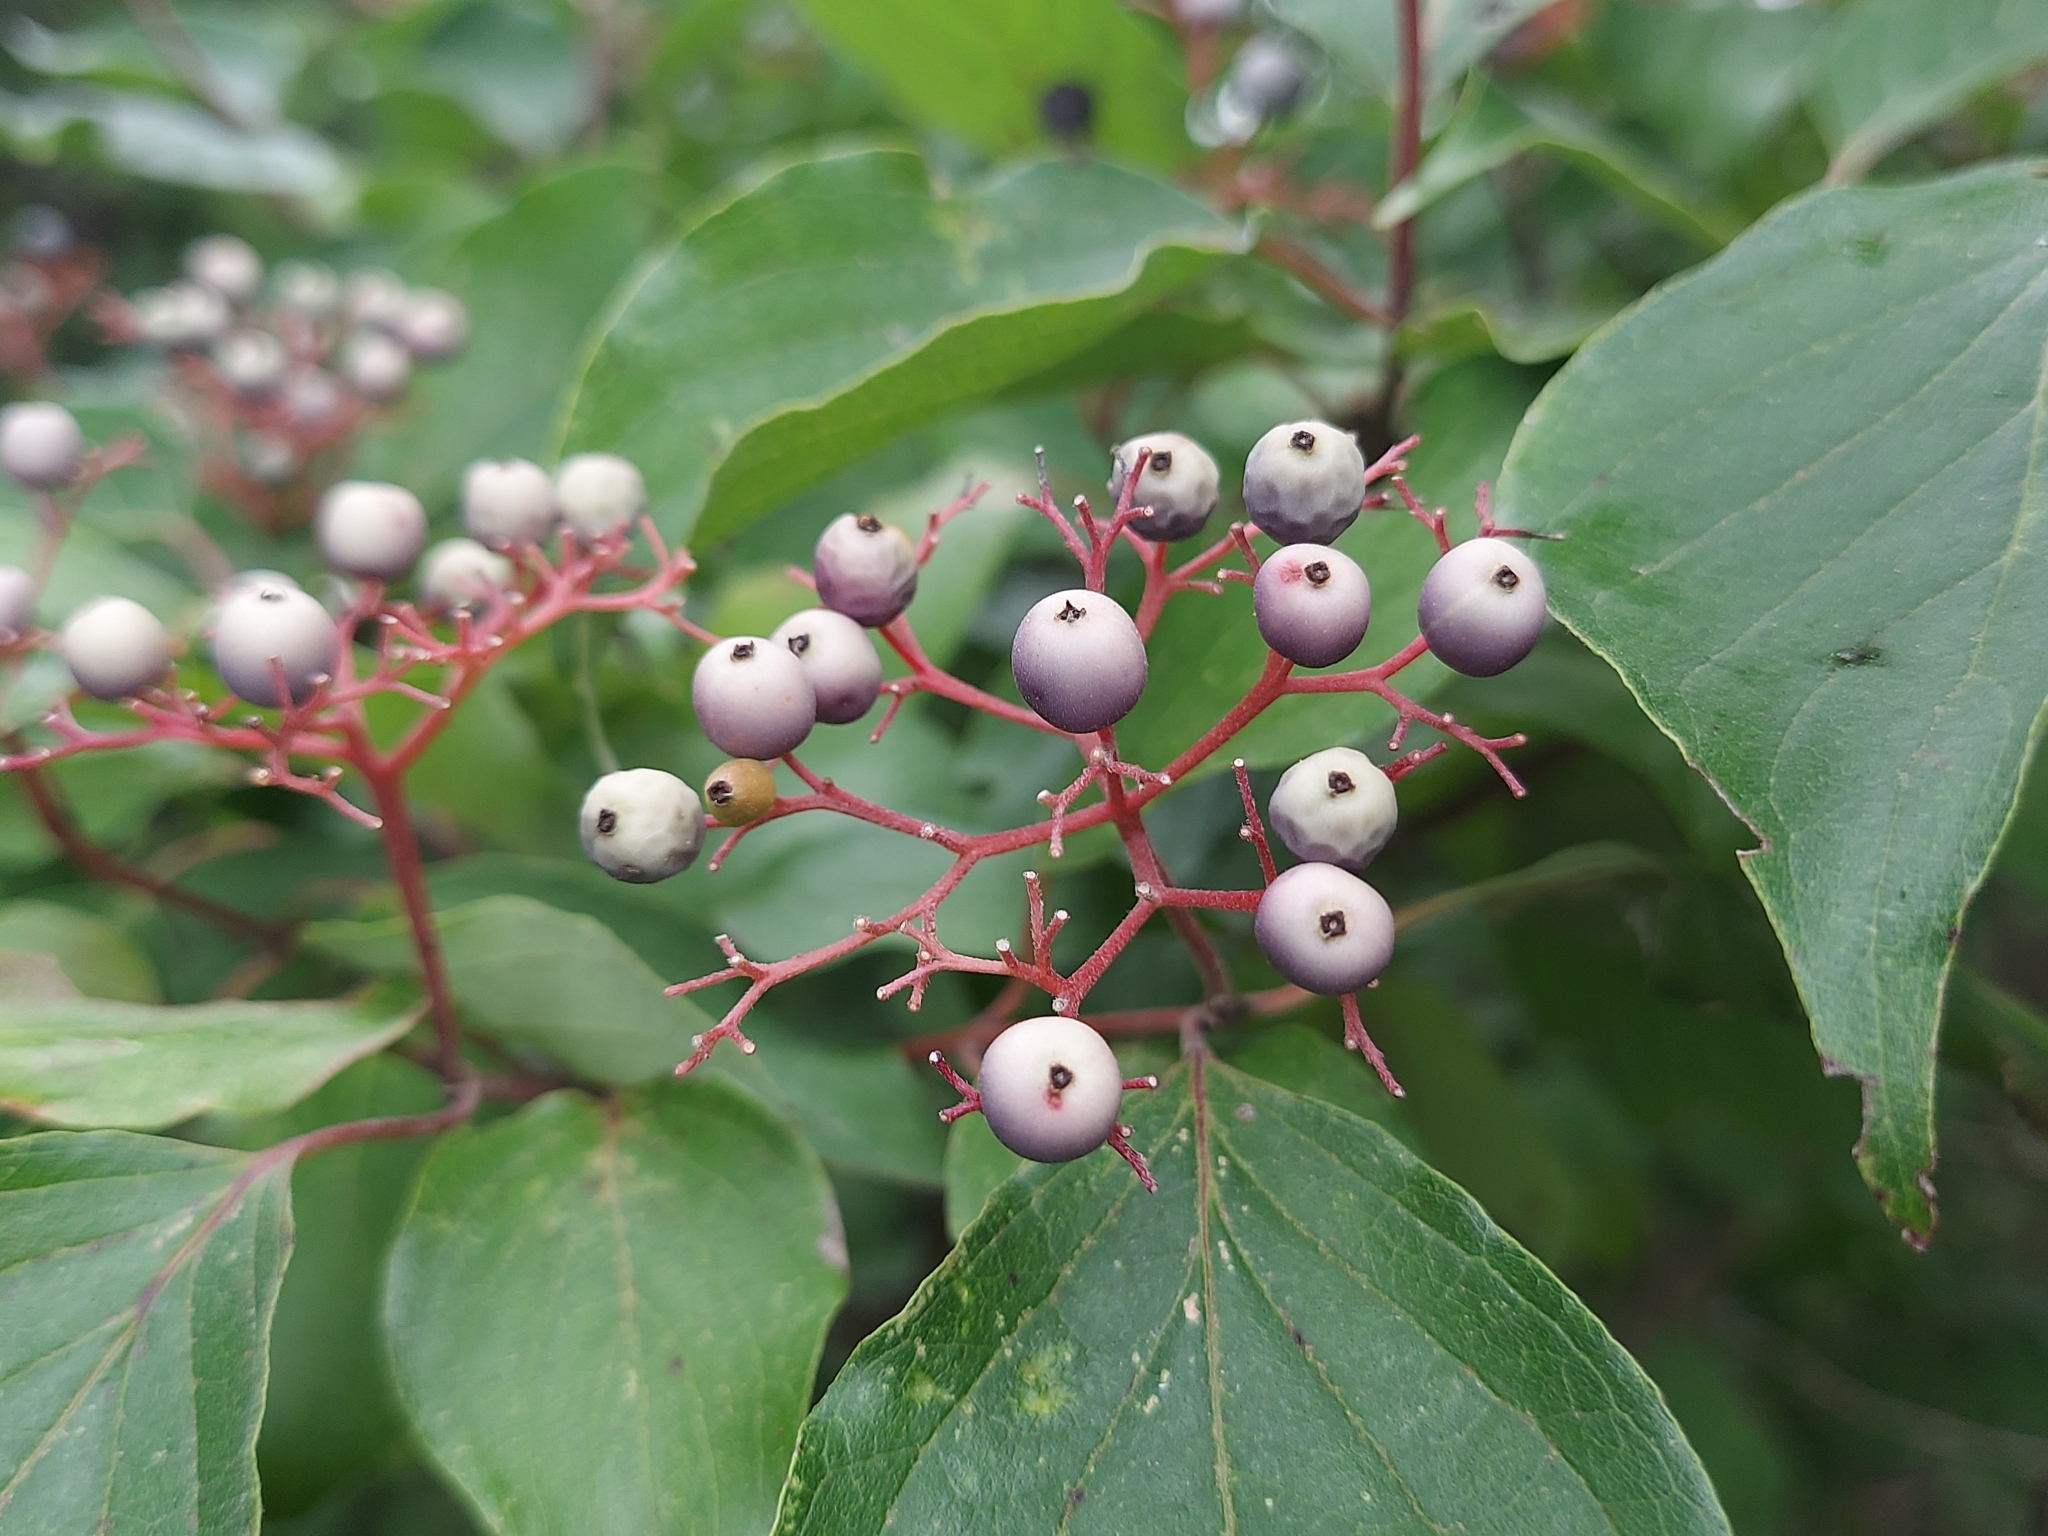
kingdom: Plantae
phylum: Tracheophyta
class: Magnoliopsida
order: Cornales
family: Cornaceae
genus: Cornus
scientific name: Cornus drummondii
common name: Rough-leaf dogwood
